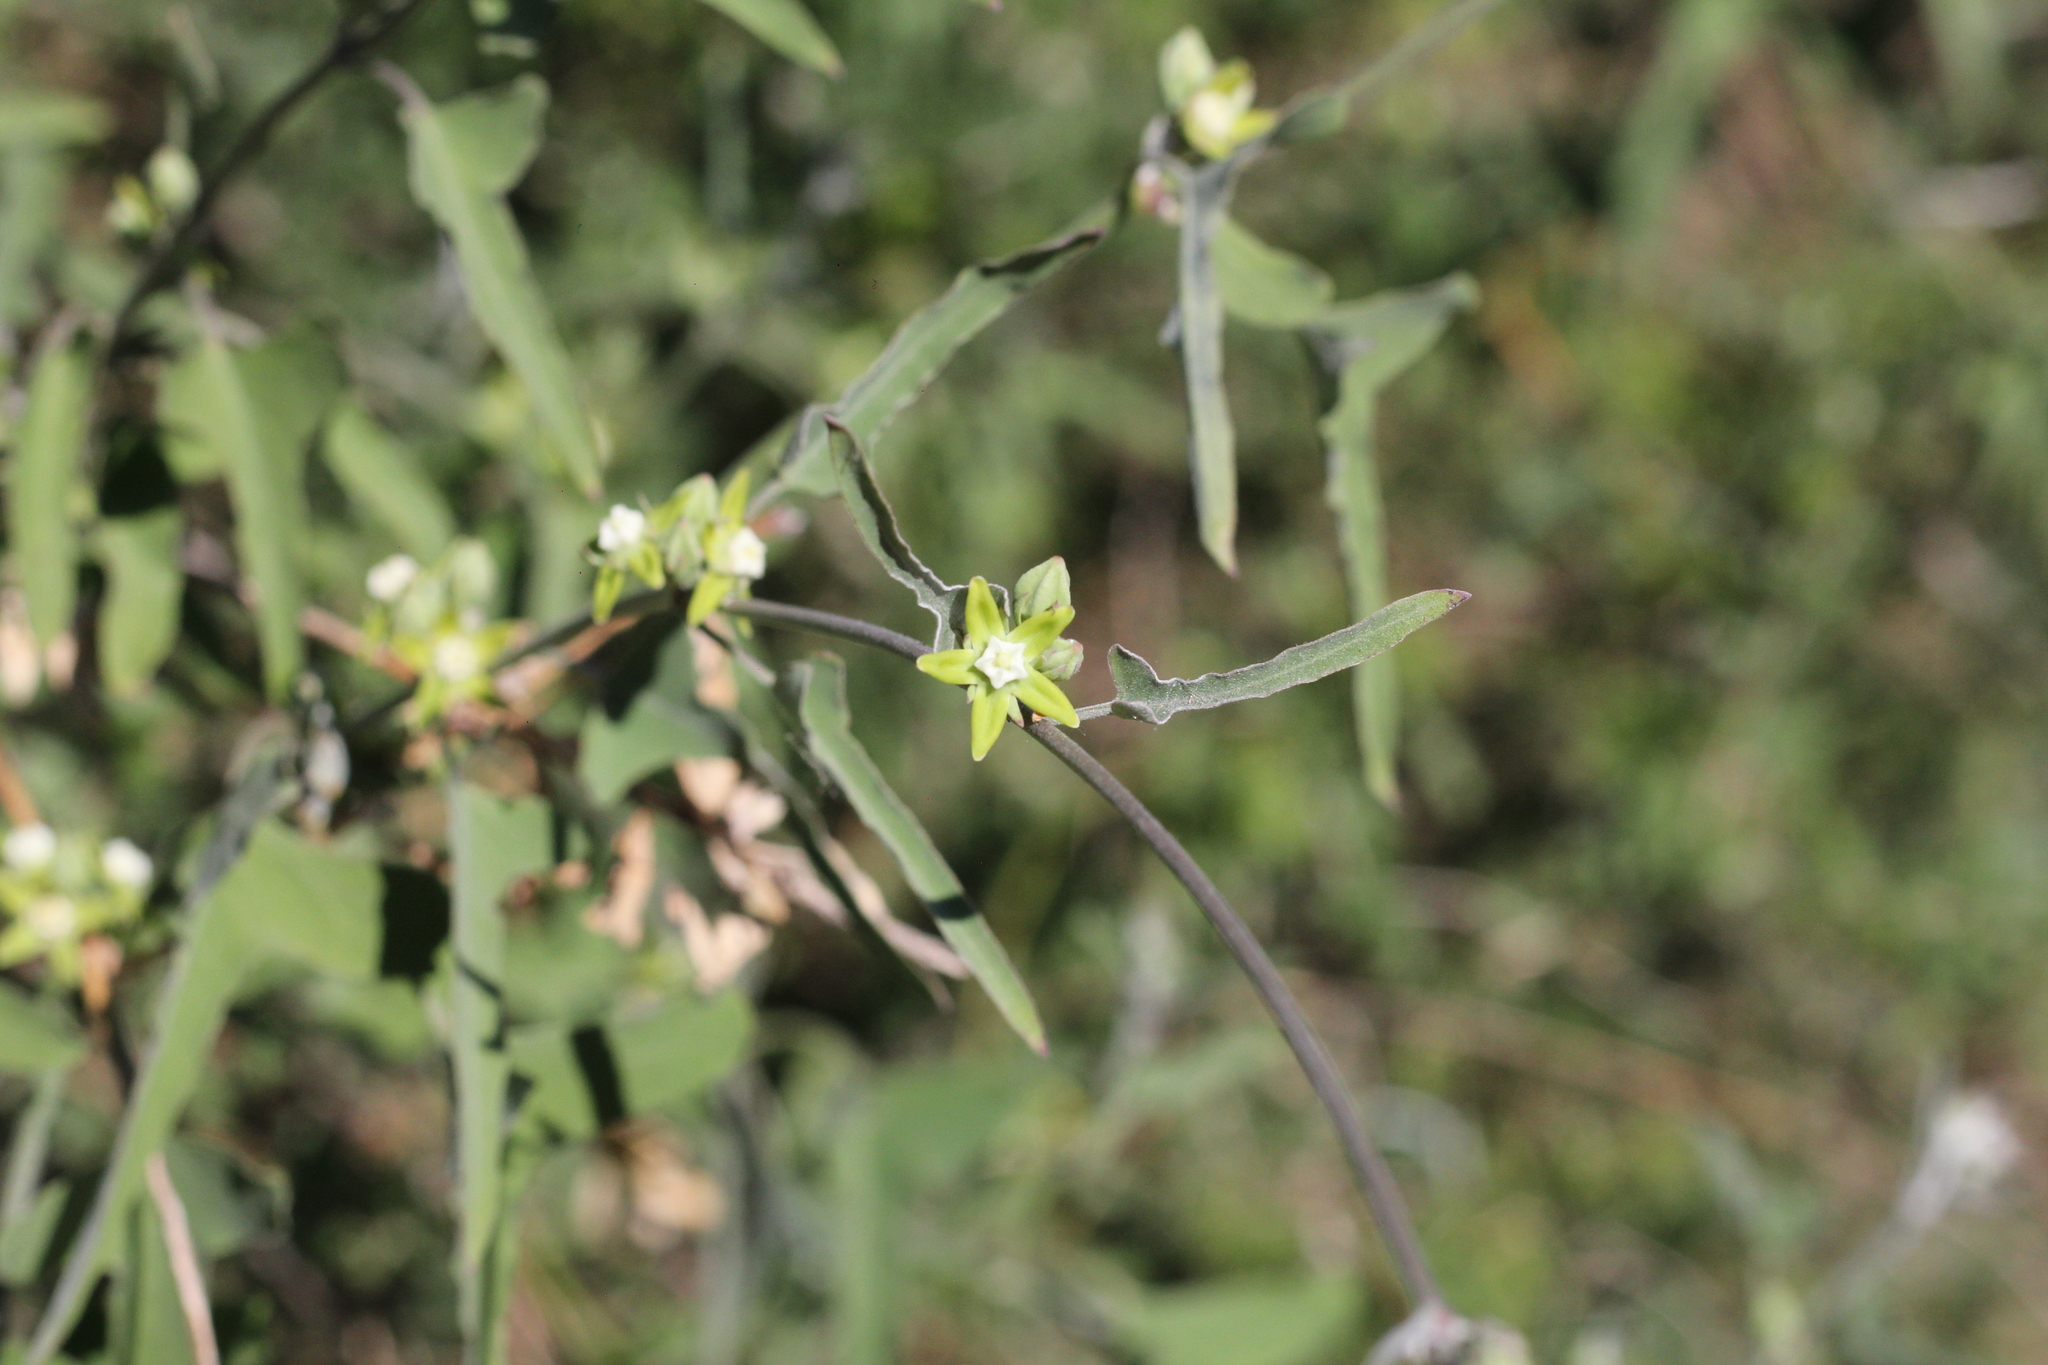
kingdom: Plantae
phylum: Tracheophyta
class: Magnoliopsida
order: Gentianales
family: Apocynaceae
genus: Araujia
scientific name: Araujia brachystephana
